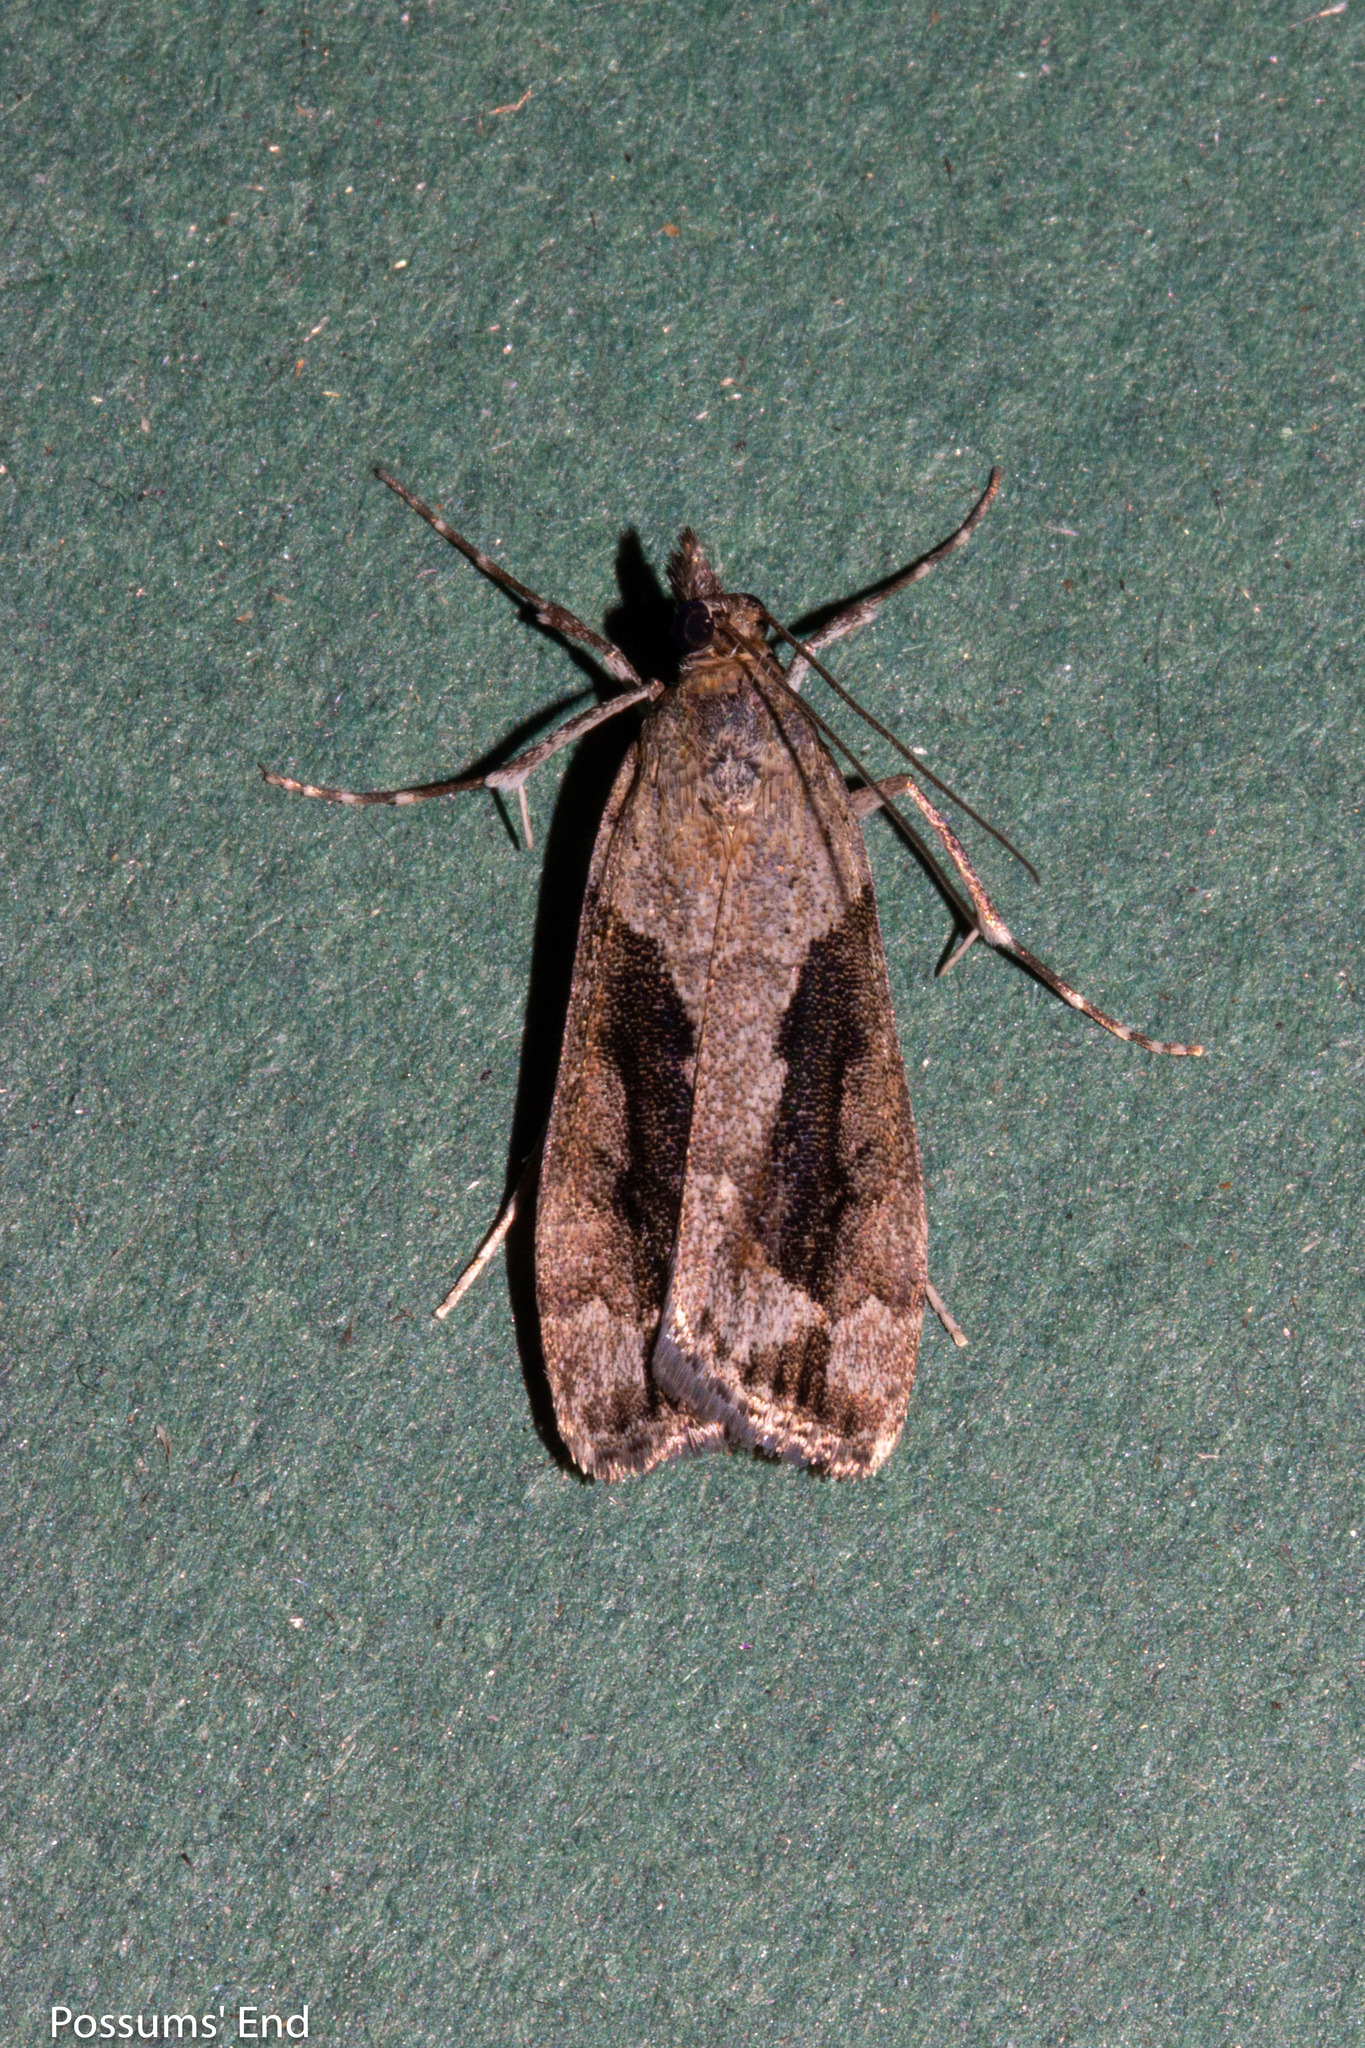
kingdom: Animalia
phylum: Arthropoda
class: Insecta
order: Lepidoptera
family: Crambidae
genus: Eudonia
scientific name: Eudonia submarginalis
